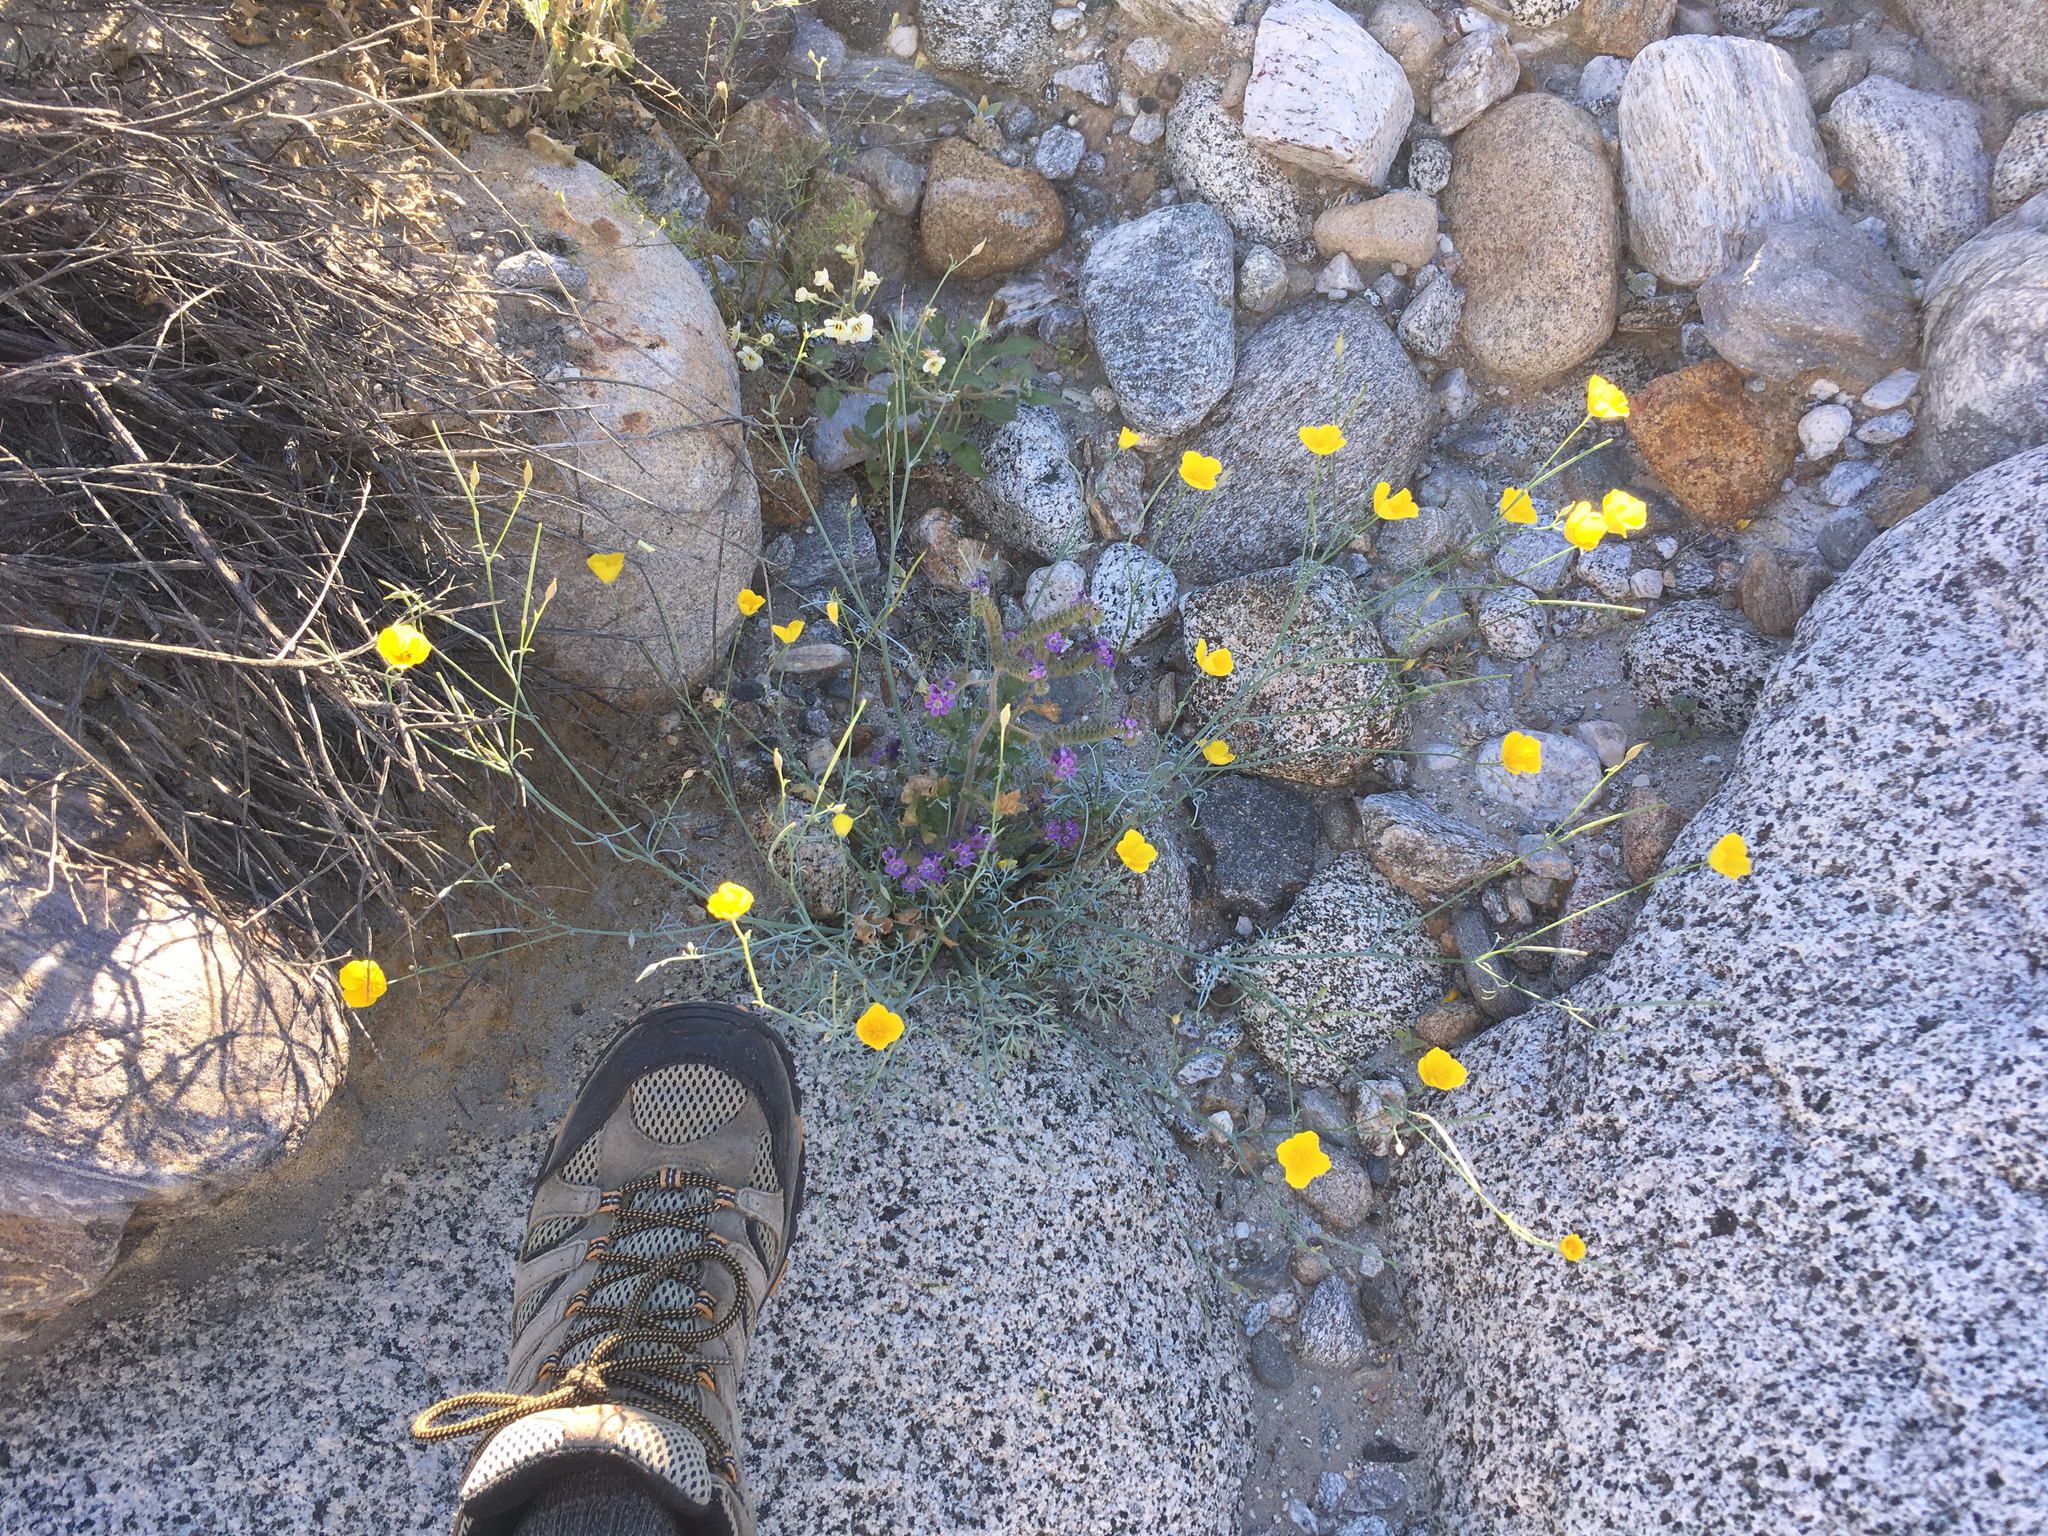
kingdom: Plantae
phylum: Tracheophyta
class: Magnoliopsida
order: Ranunculales
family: Papaveraceae
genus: Eschscholzia
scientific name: Eschscholzia parishii
